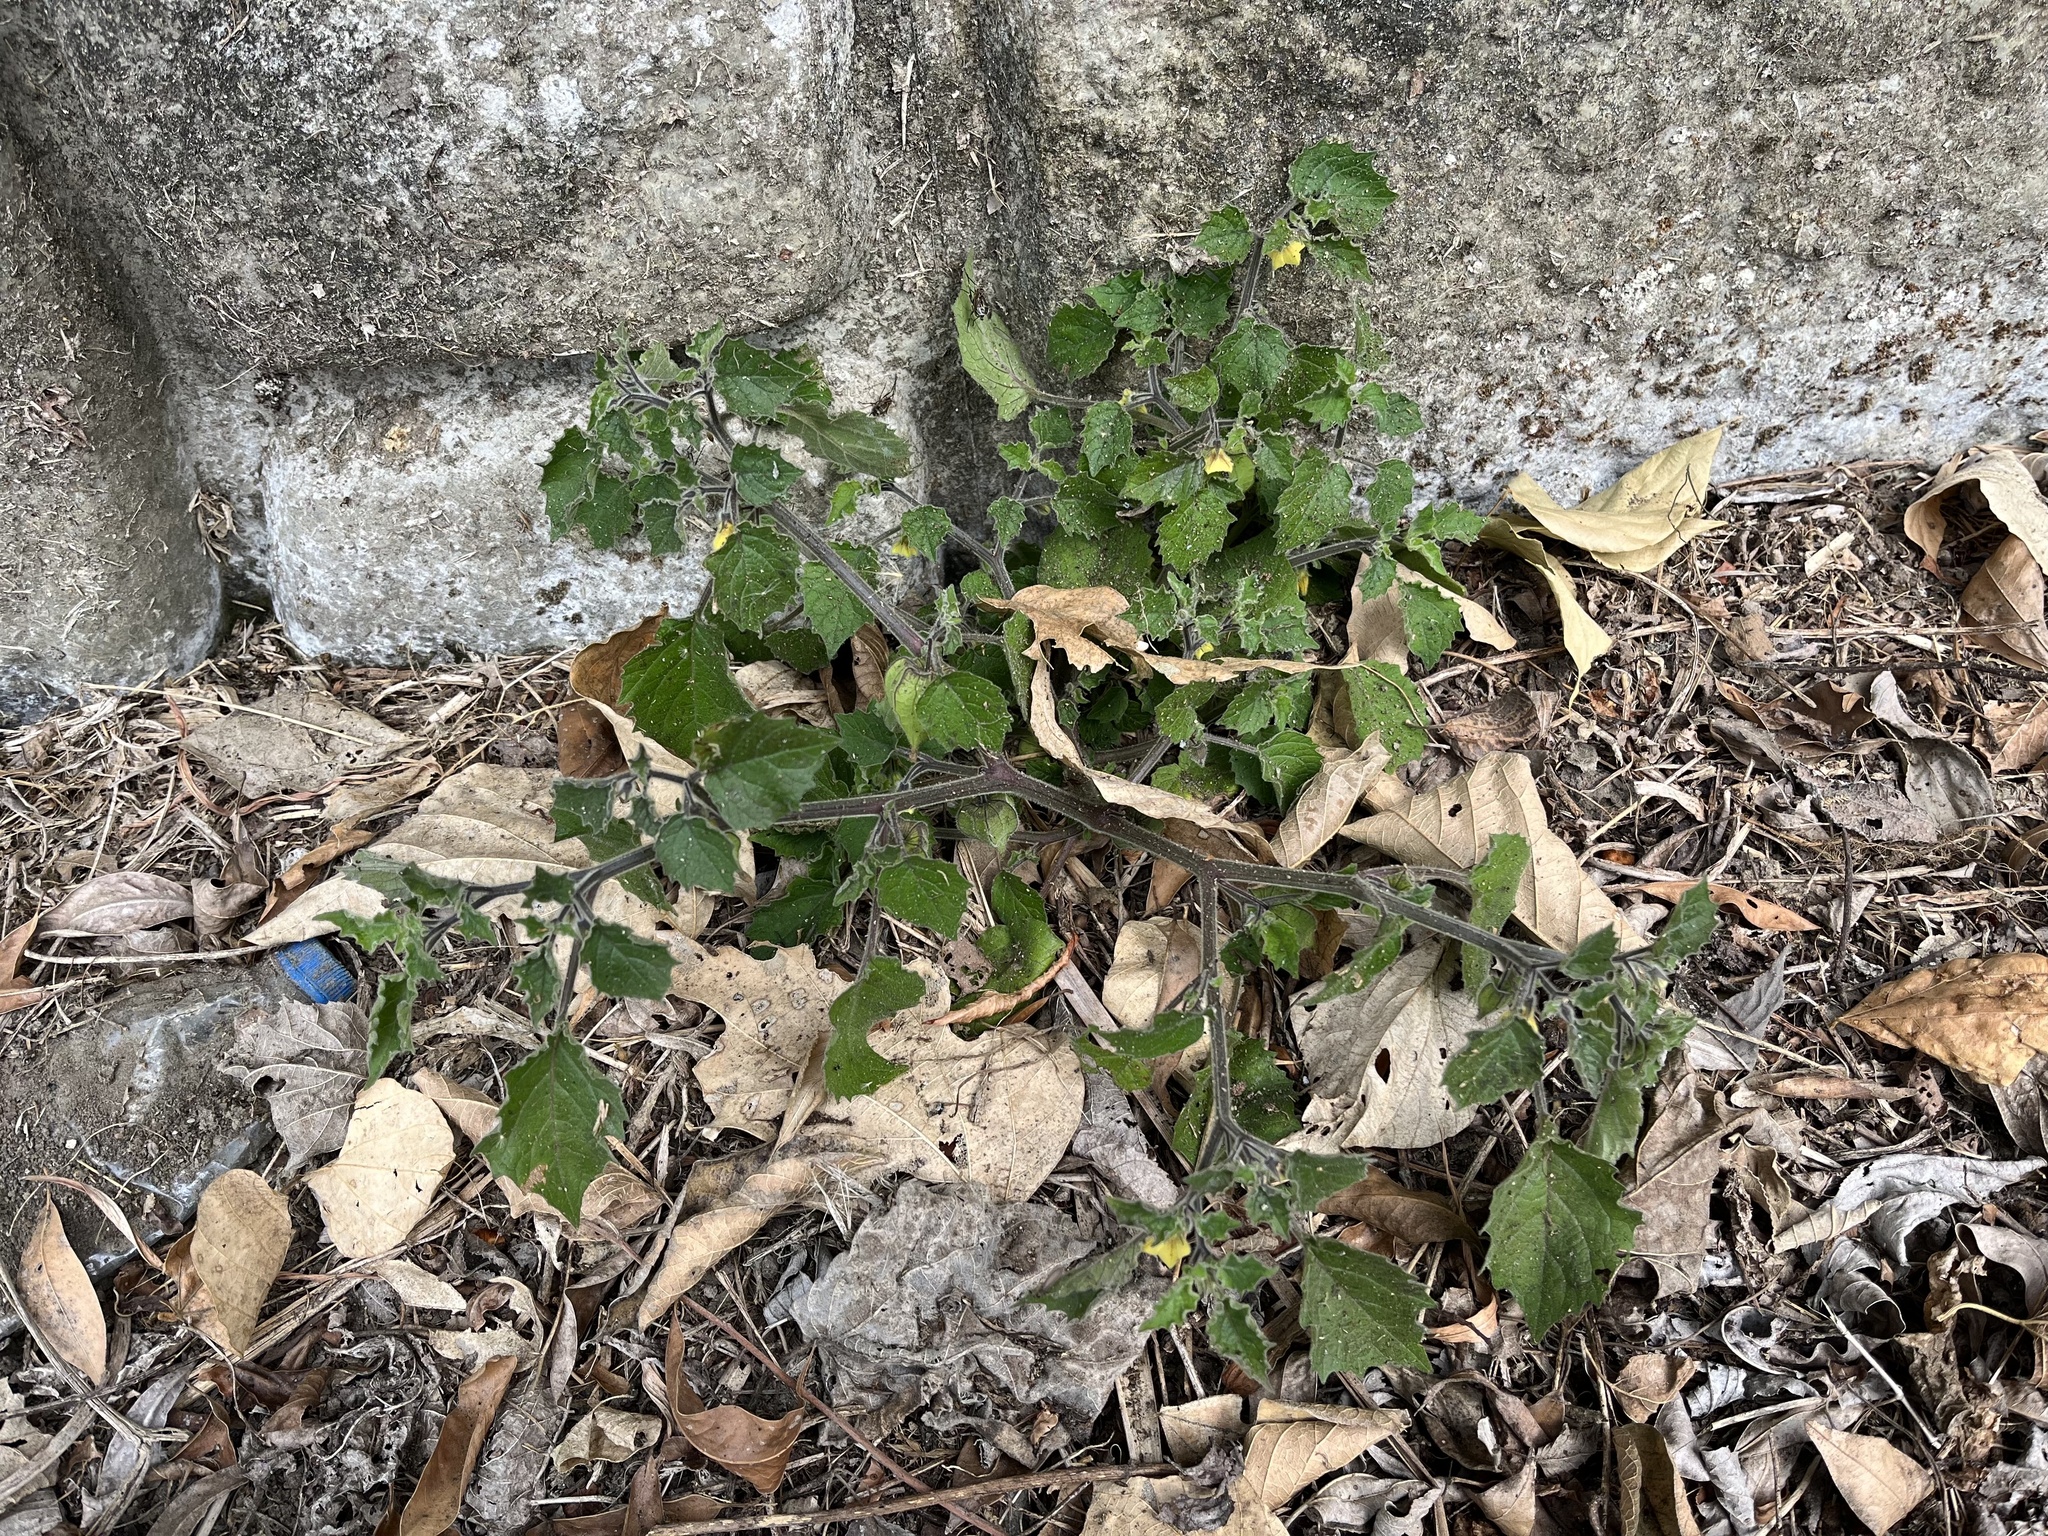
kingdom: Plantae
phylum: Tracheophyta
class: Magnoliopsida
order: Solanales
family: Solanaceae
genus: Physalis
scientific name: Physalis pubescens
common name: Downy ground-cherry
